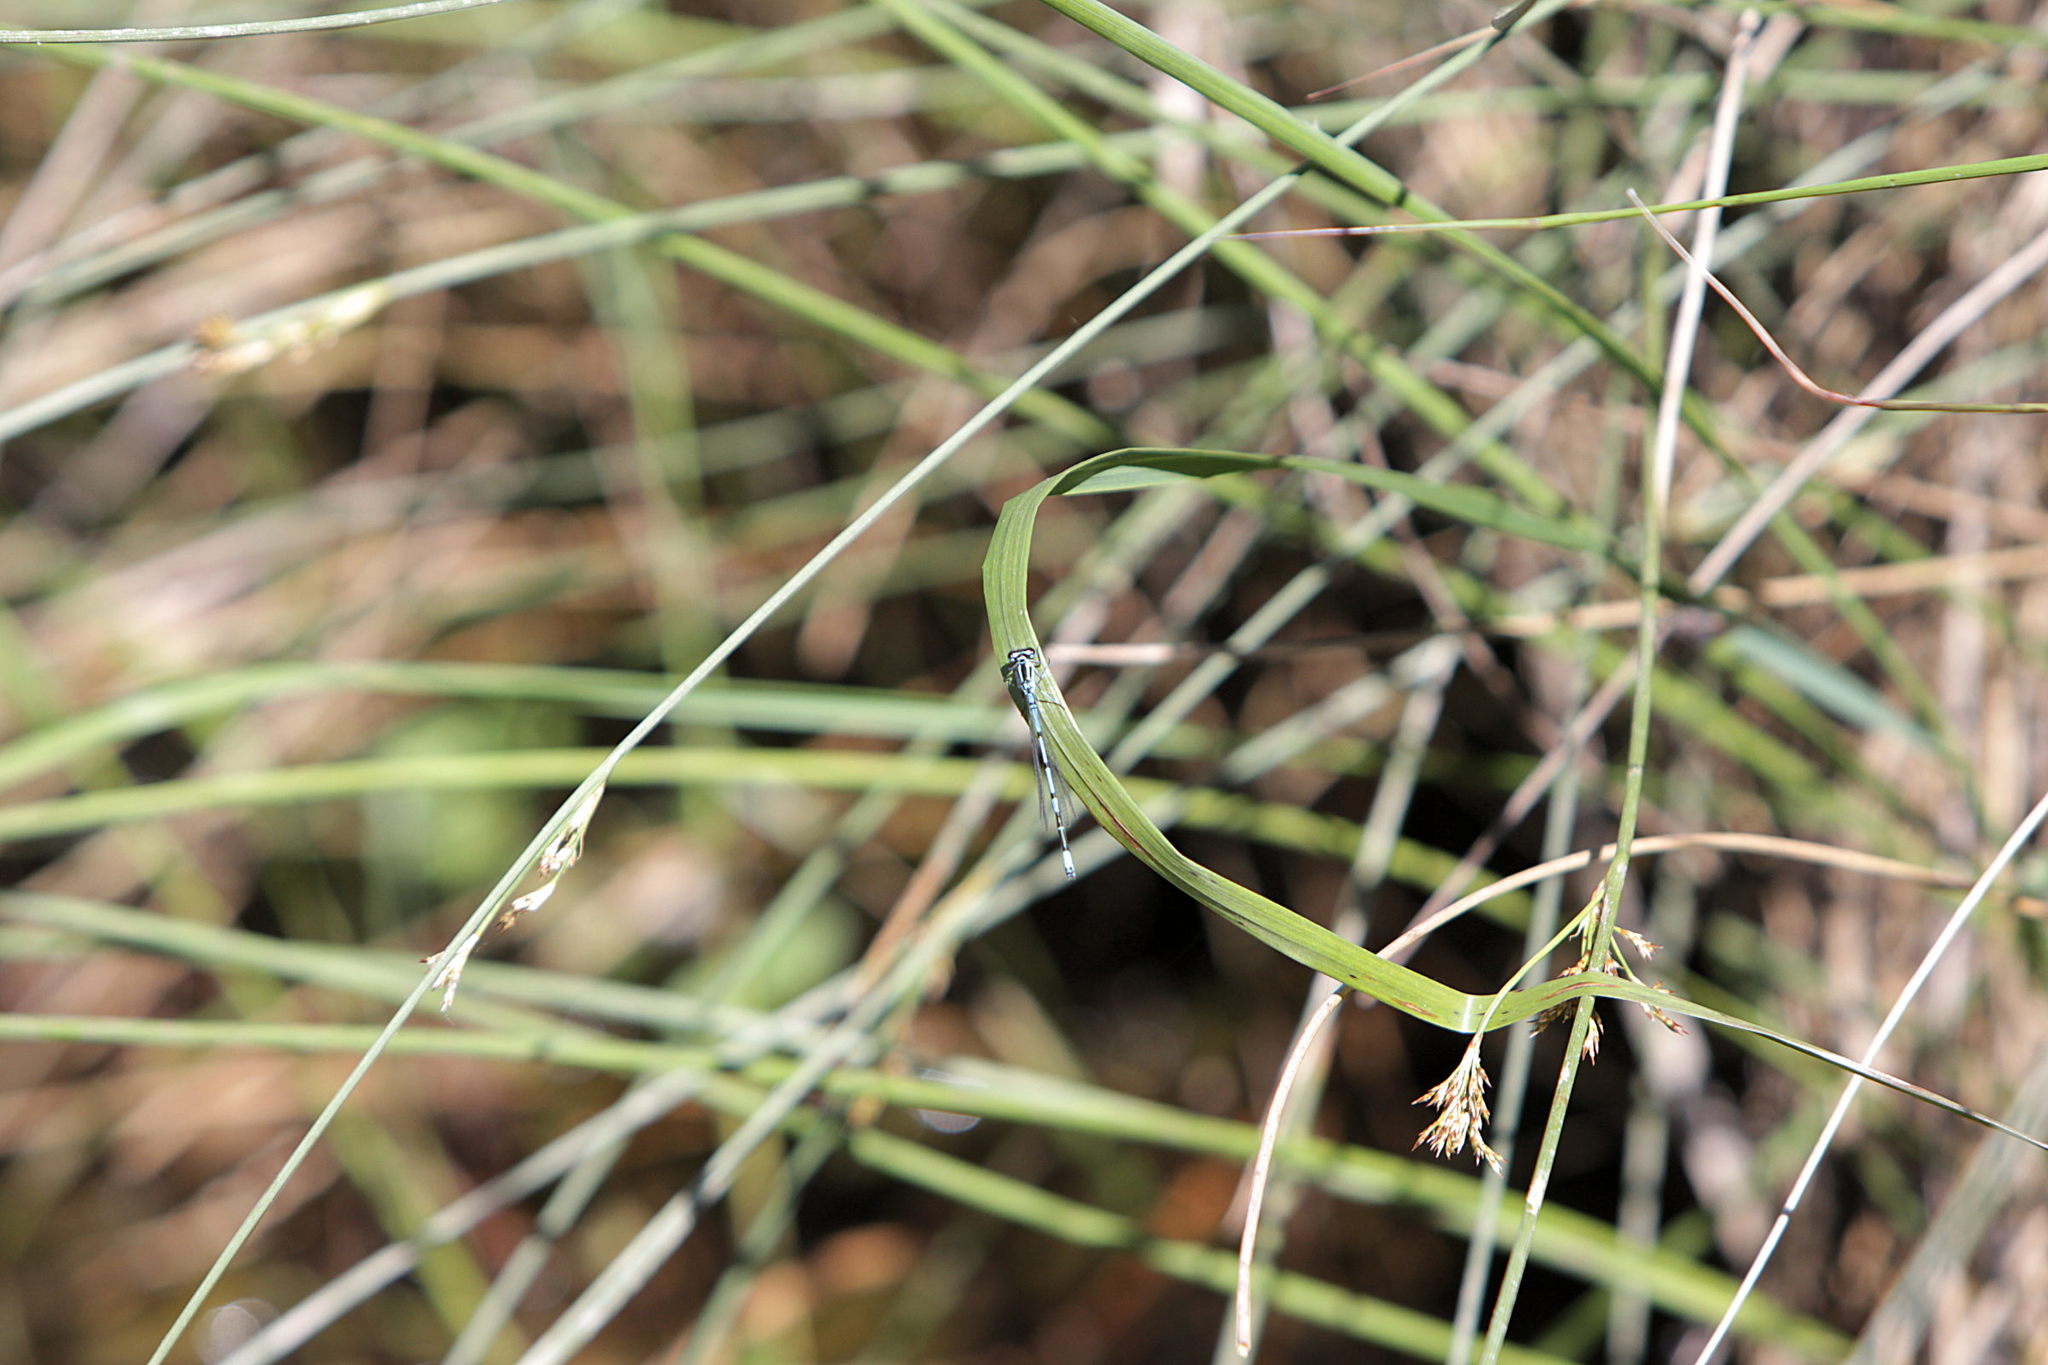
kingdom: Animalia
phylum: Arthropoda
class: Insecta
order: Odonata
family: Coenagrionidae
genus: Coenagrion
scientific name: Coenagrion puella
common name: Azure damselfly
